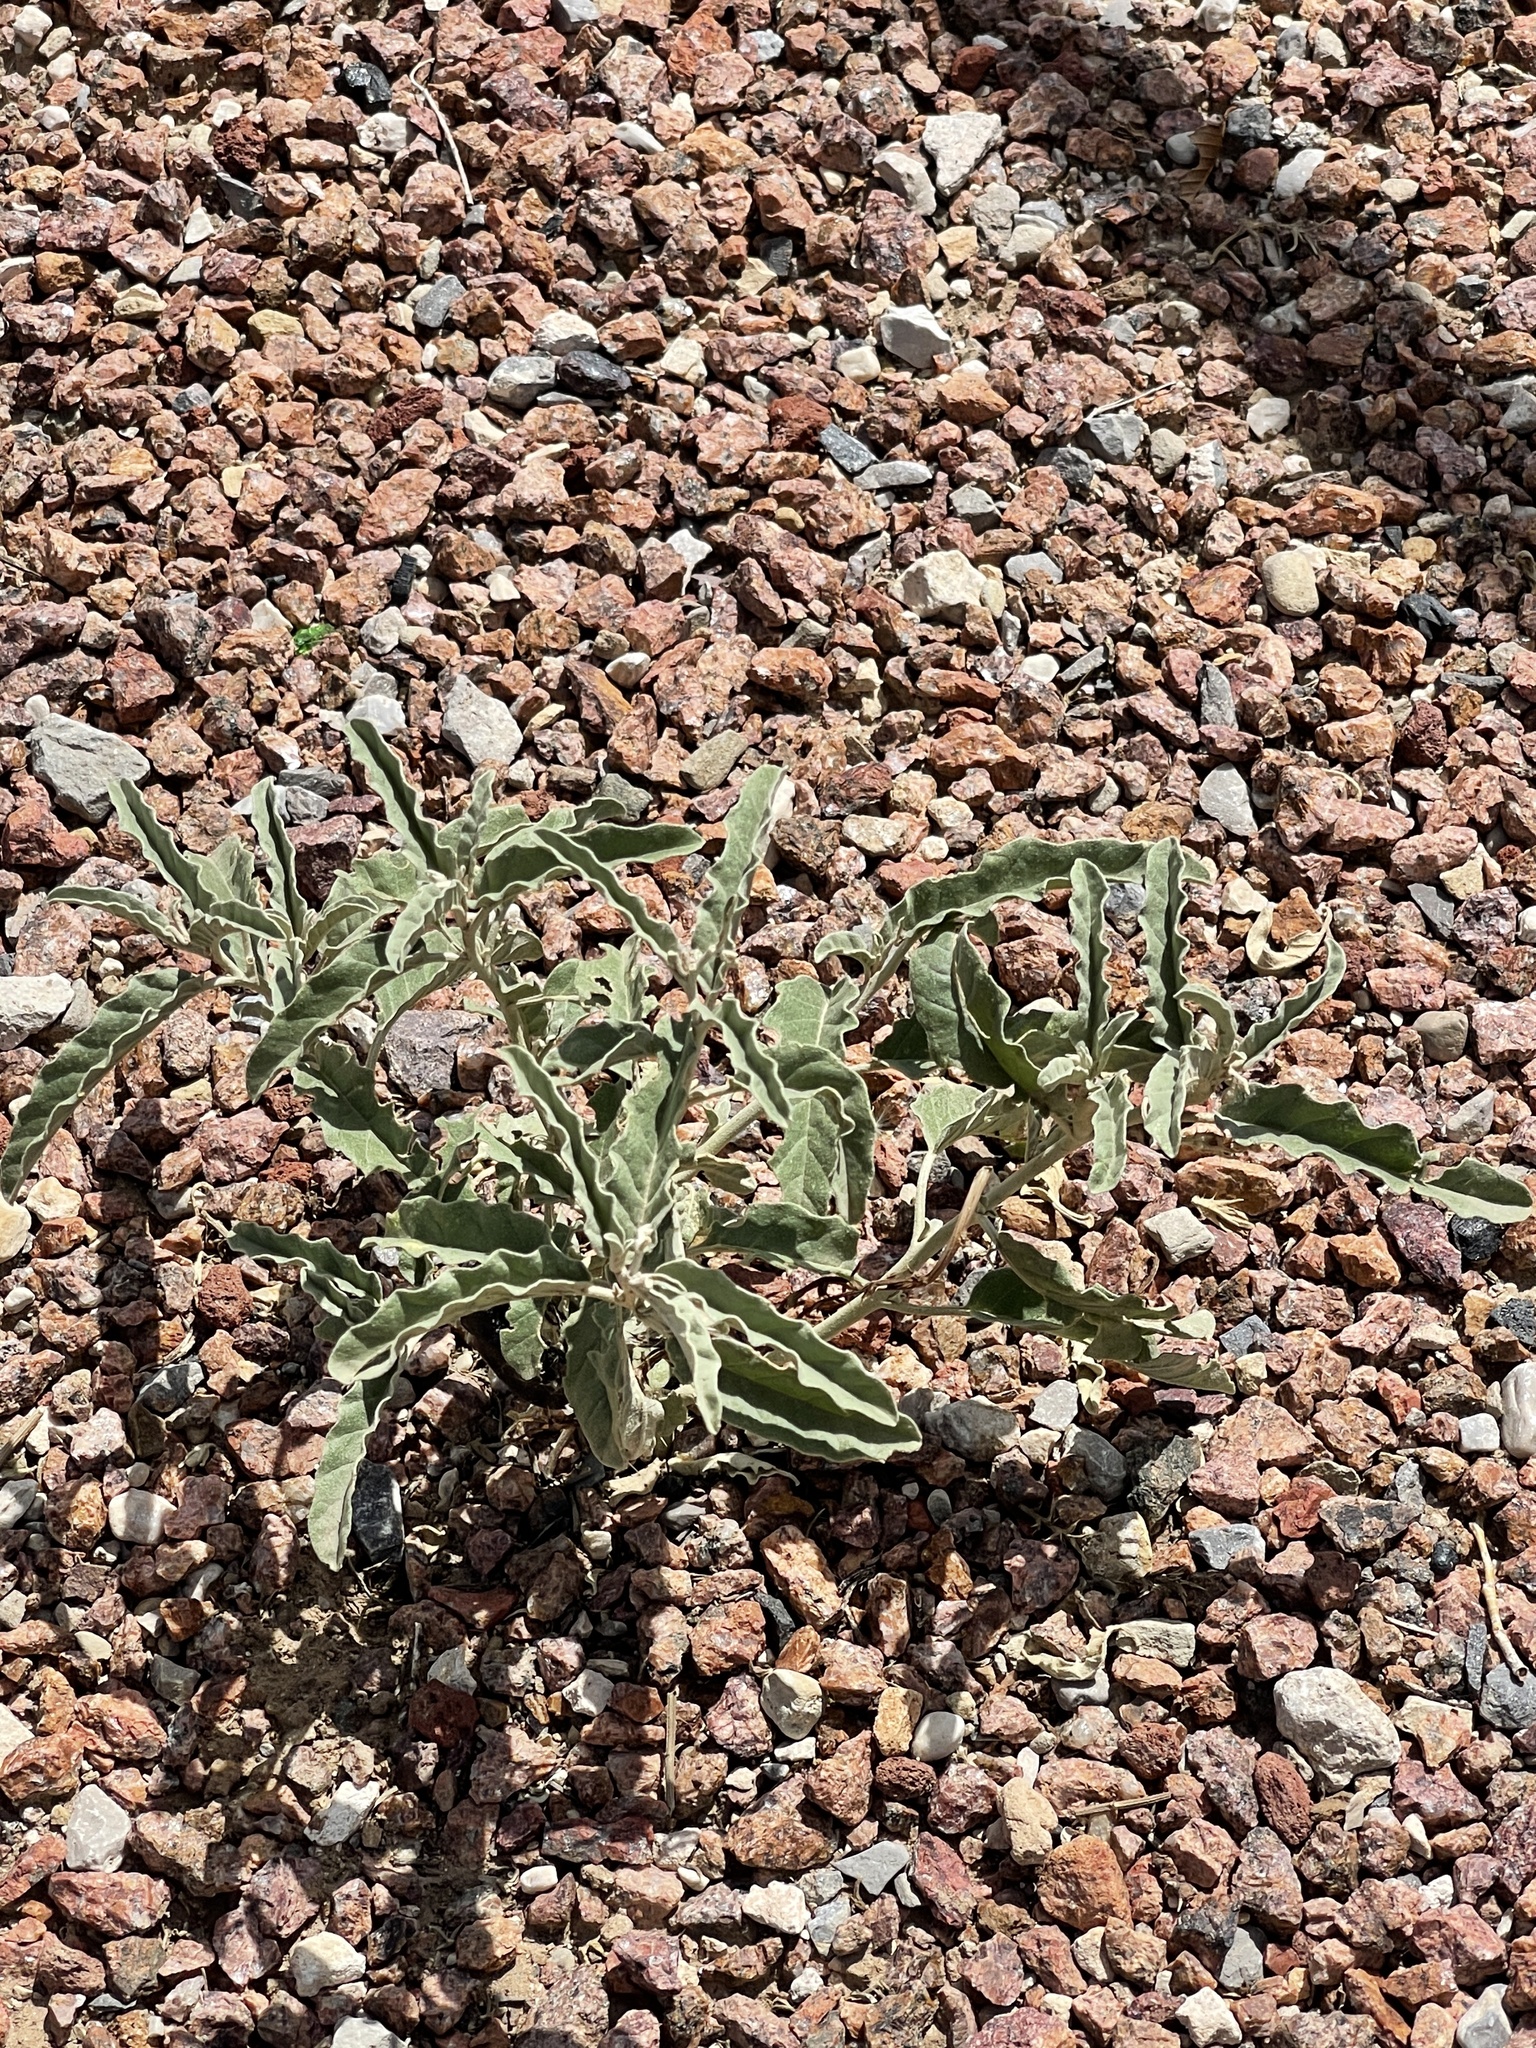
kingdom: Plantae
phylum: Tracheophyta
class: Magnoliopsida
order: Solanales
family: Solanaceae
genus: Solanum
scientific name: Solanum elaeagnifolium
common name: Silverleaf nightshade
